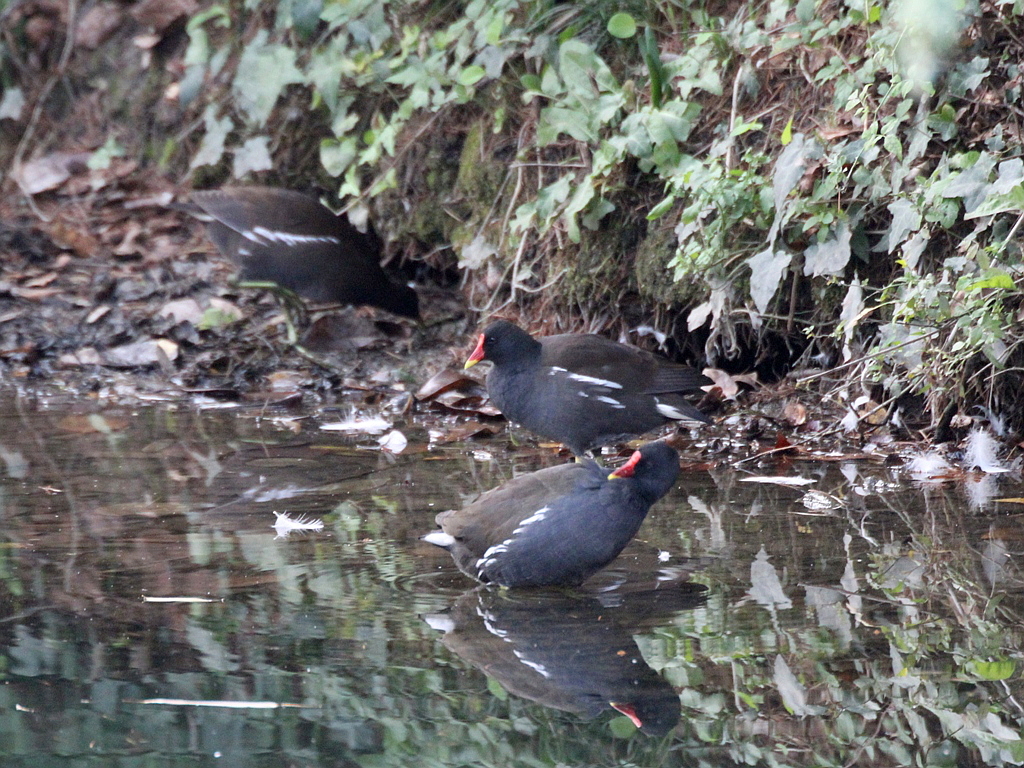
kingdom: Animalia
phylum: Chordata
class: Aves
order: Gruiformes
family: Rallidae
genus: Gallinula
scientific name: Gallinula chloropus
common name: Common moorhen
